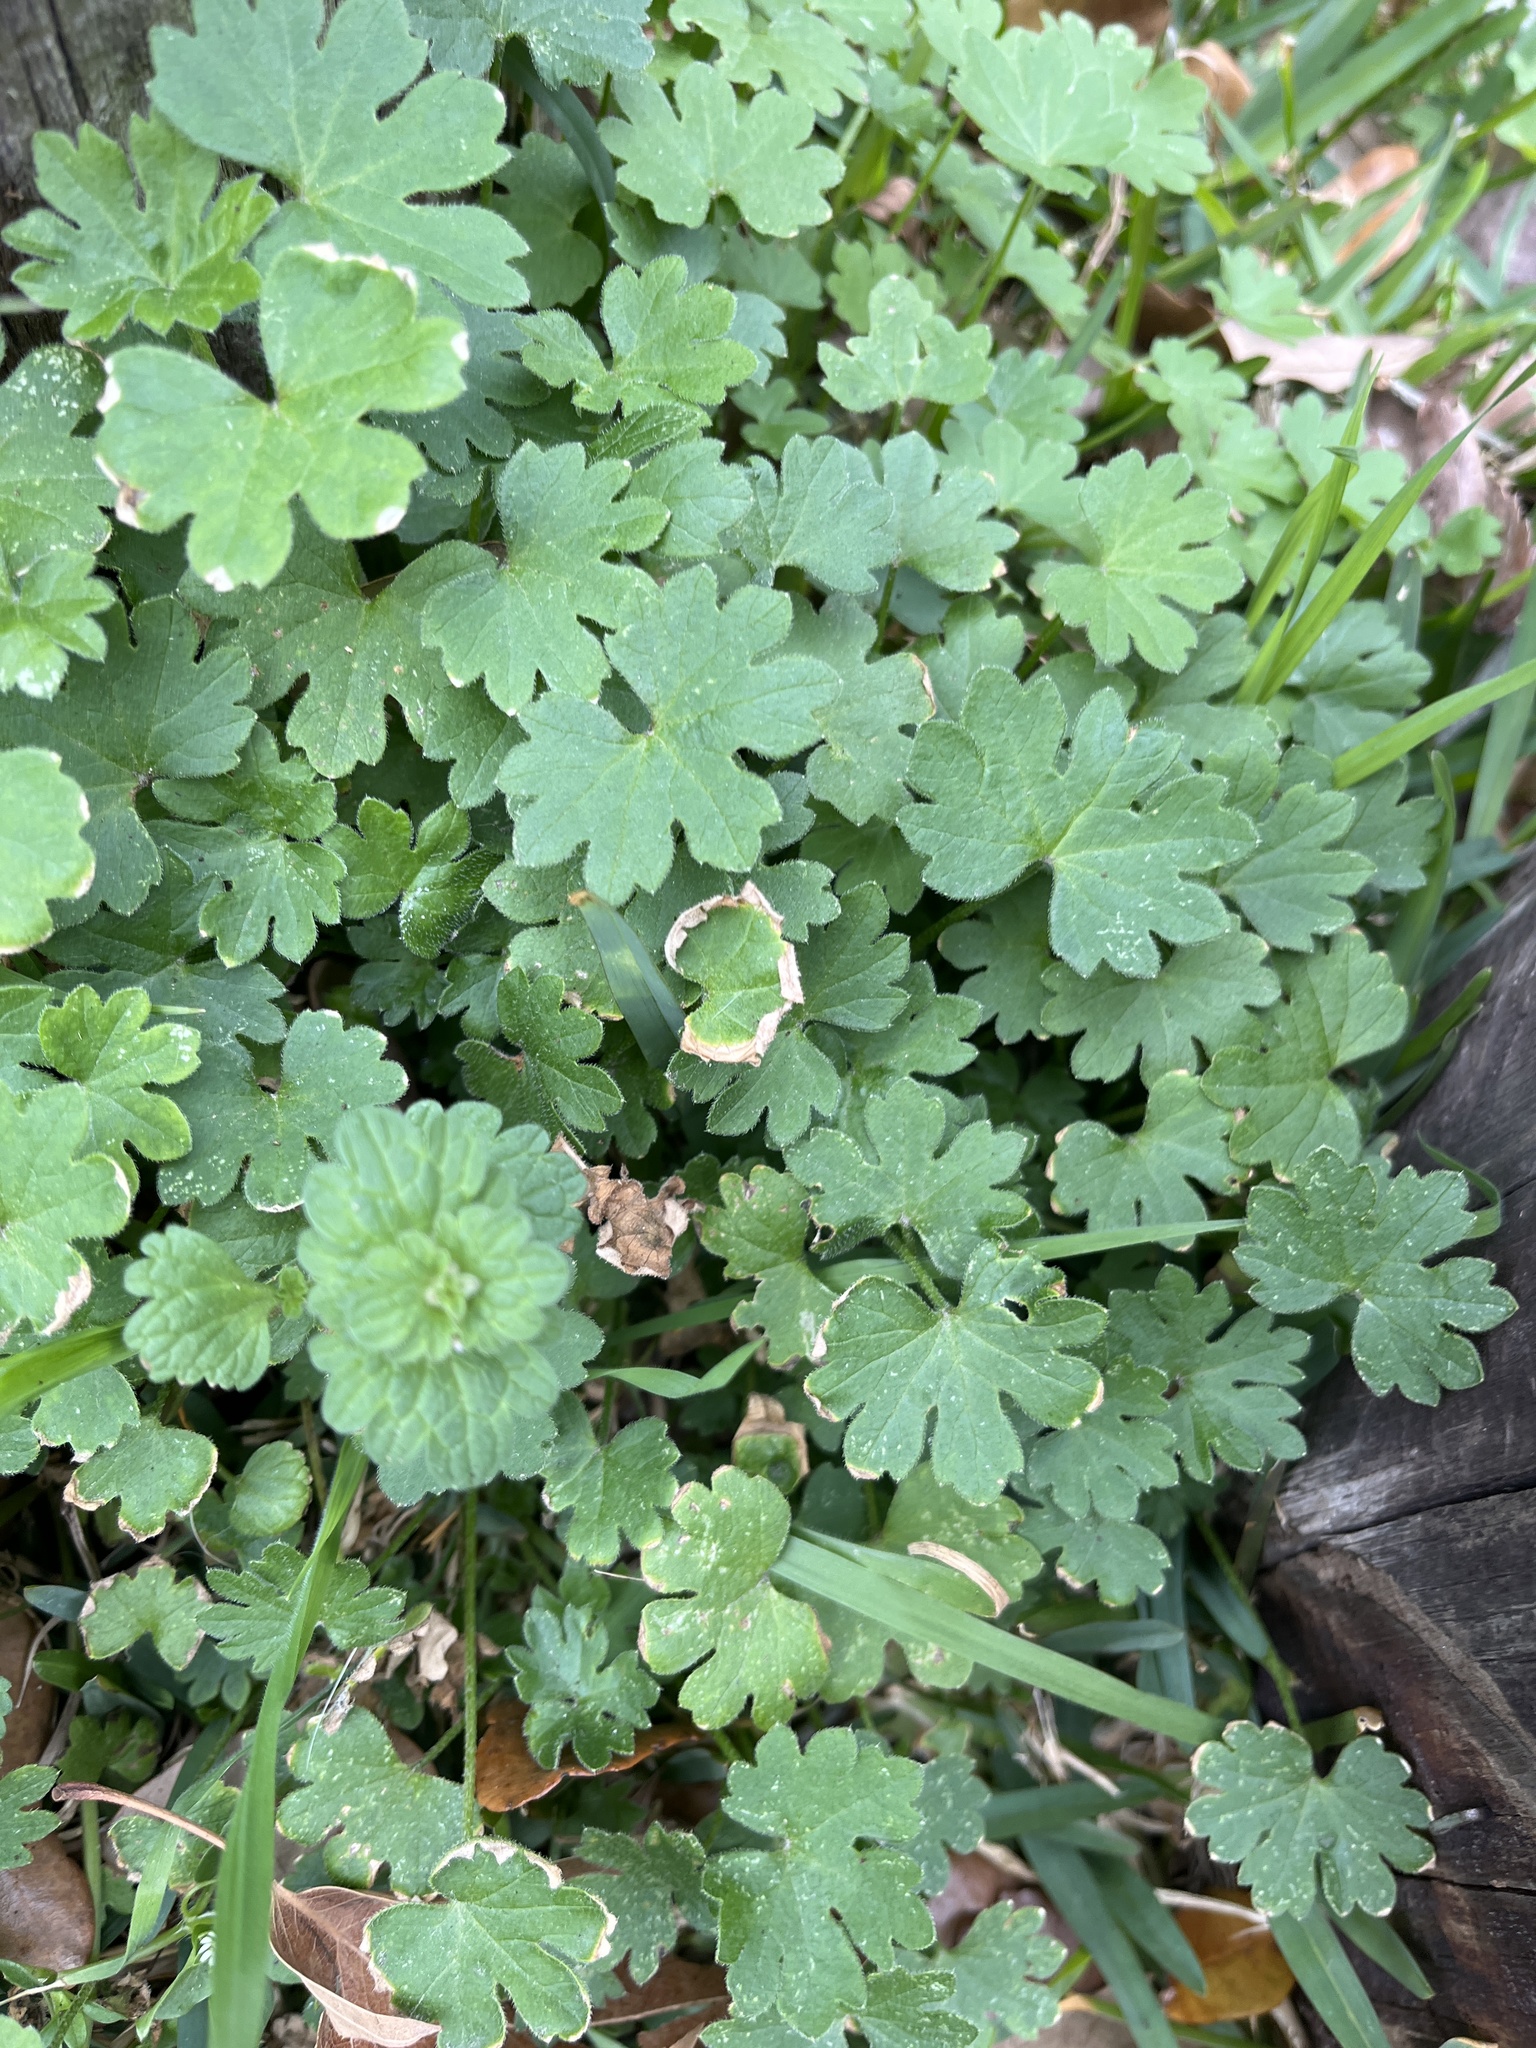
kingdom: Plantae
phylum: Tracheophyta
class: Magnoliopsida
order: Apiales
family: Apiaceae
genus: Bowlesia
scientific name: Bowlesia incana
